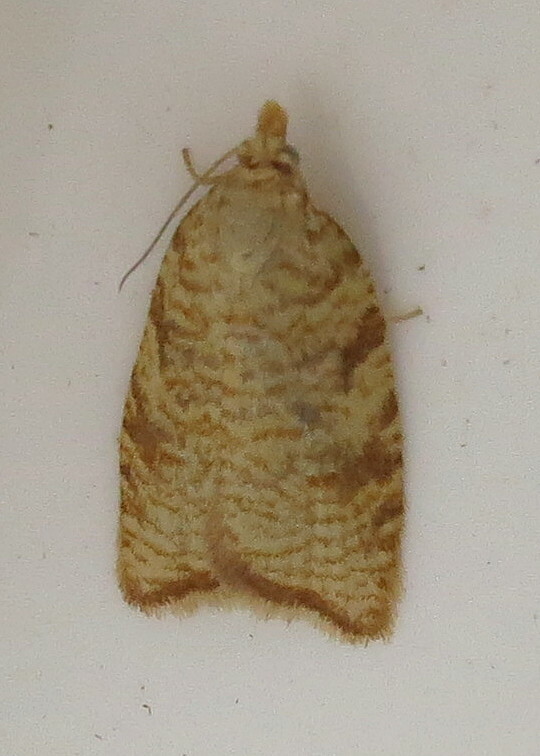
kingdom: Animalia
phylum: Arthropoda
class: Insecta
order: Lepidoptera
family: Tortricidae
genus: Aleimma
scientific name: Aleimma loeflingiana
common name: Yellow oak button
